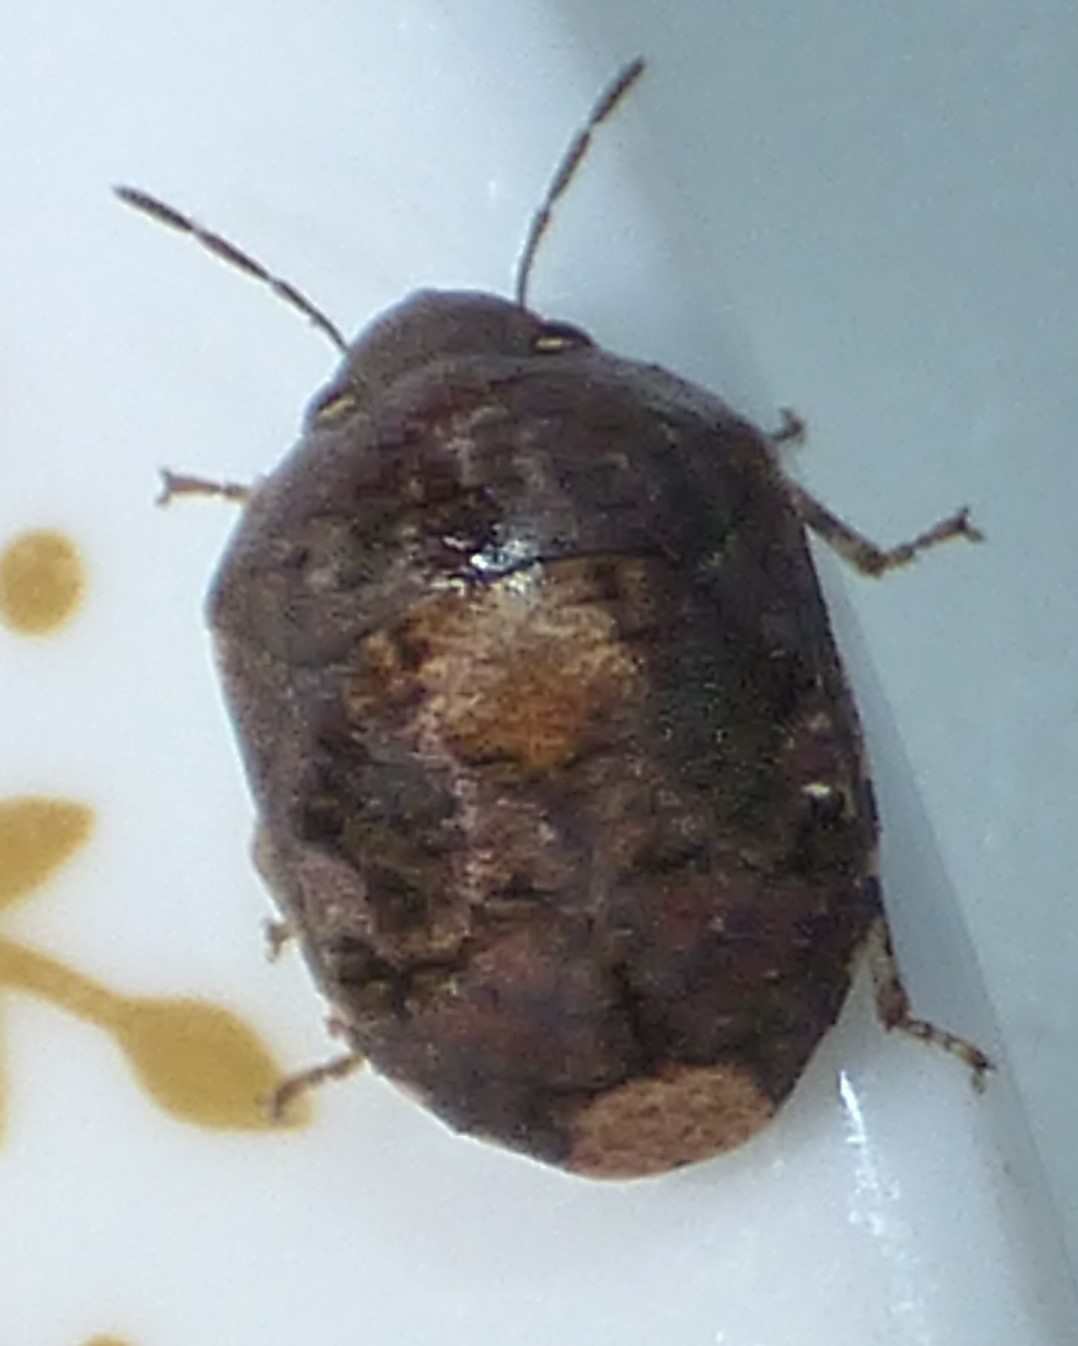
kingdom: Animalia
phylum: Arthropoda
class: Insecta
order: Hemiptera
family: Scutelleridae
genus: Stethaulax
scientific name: Stethaulax marmoratus
